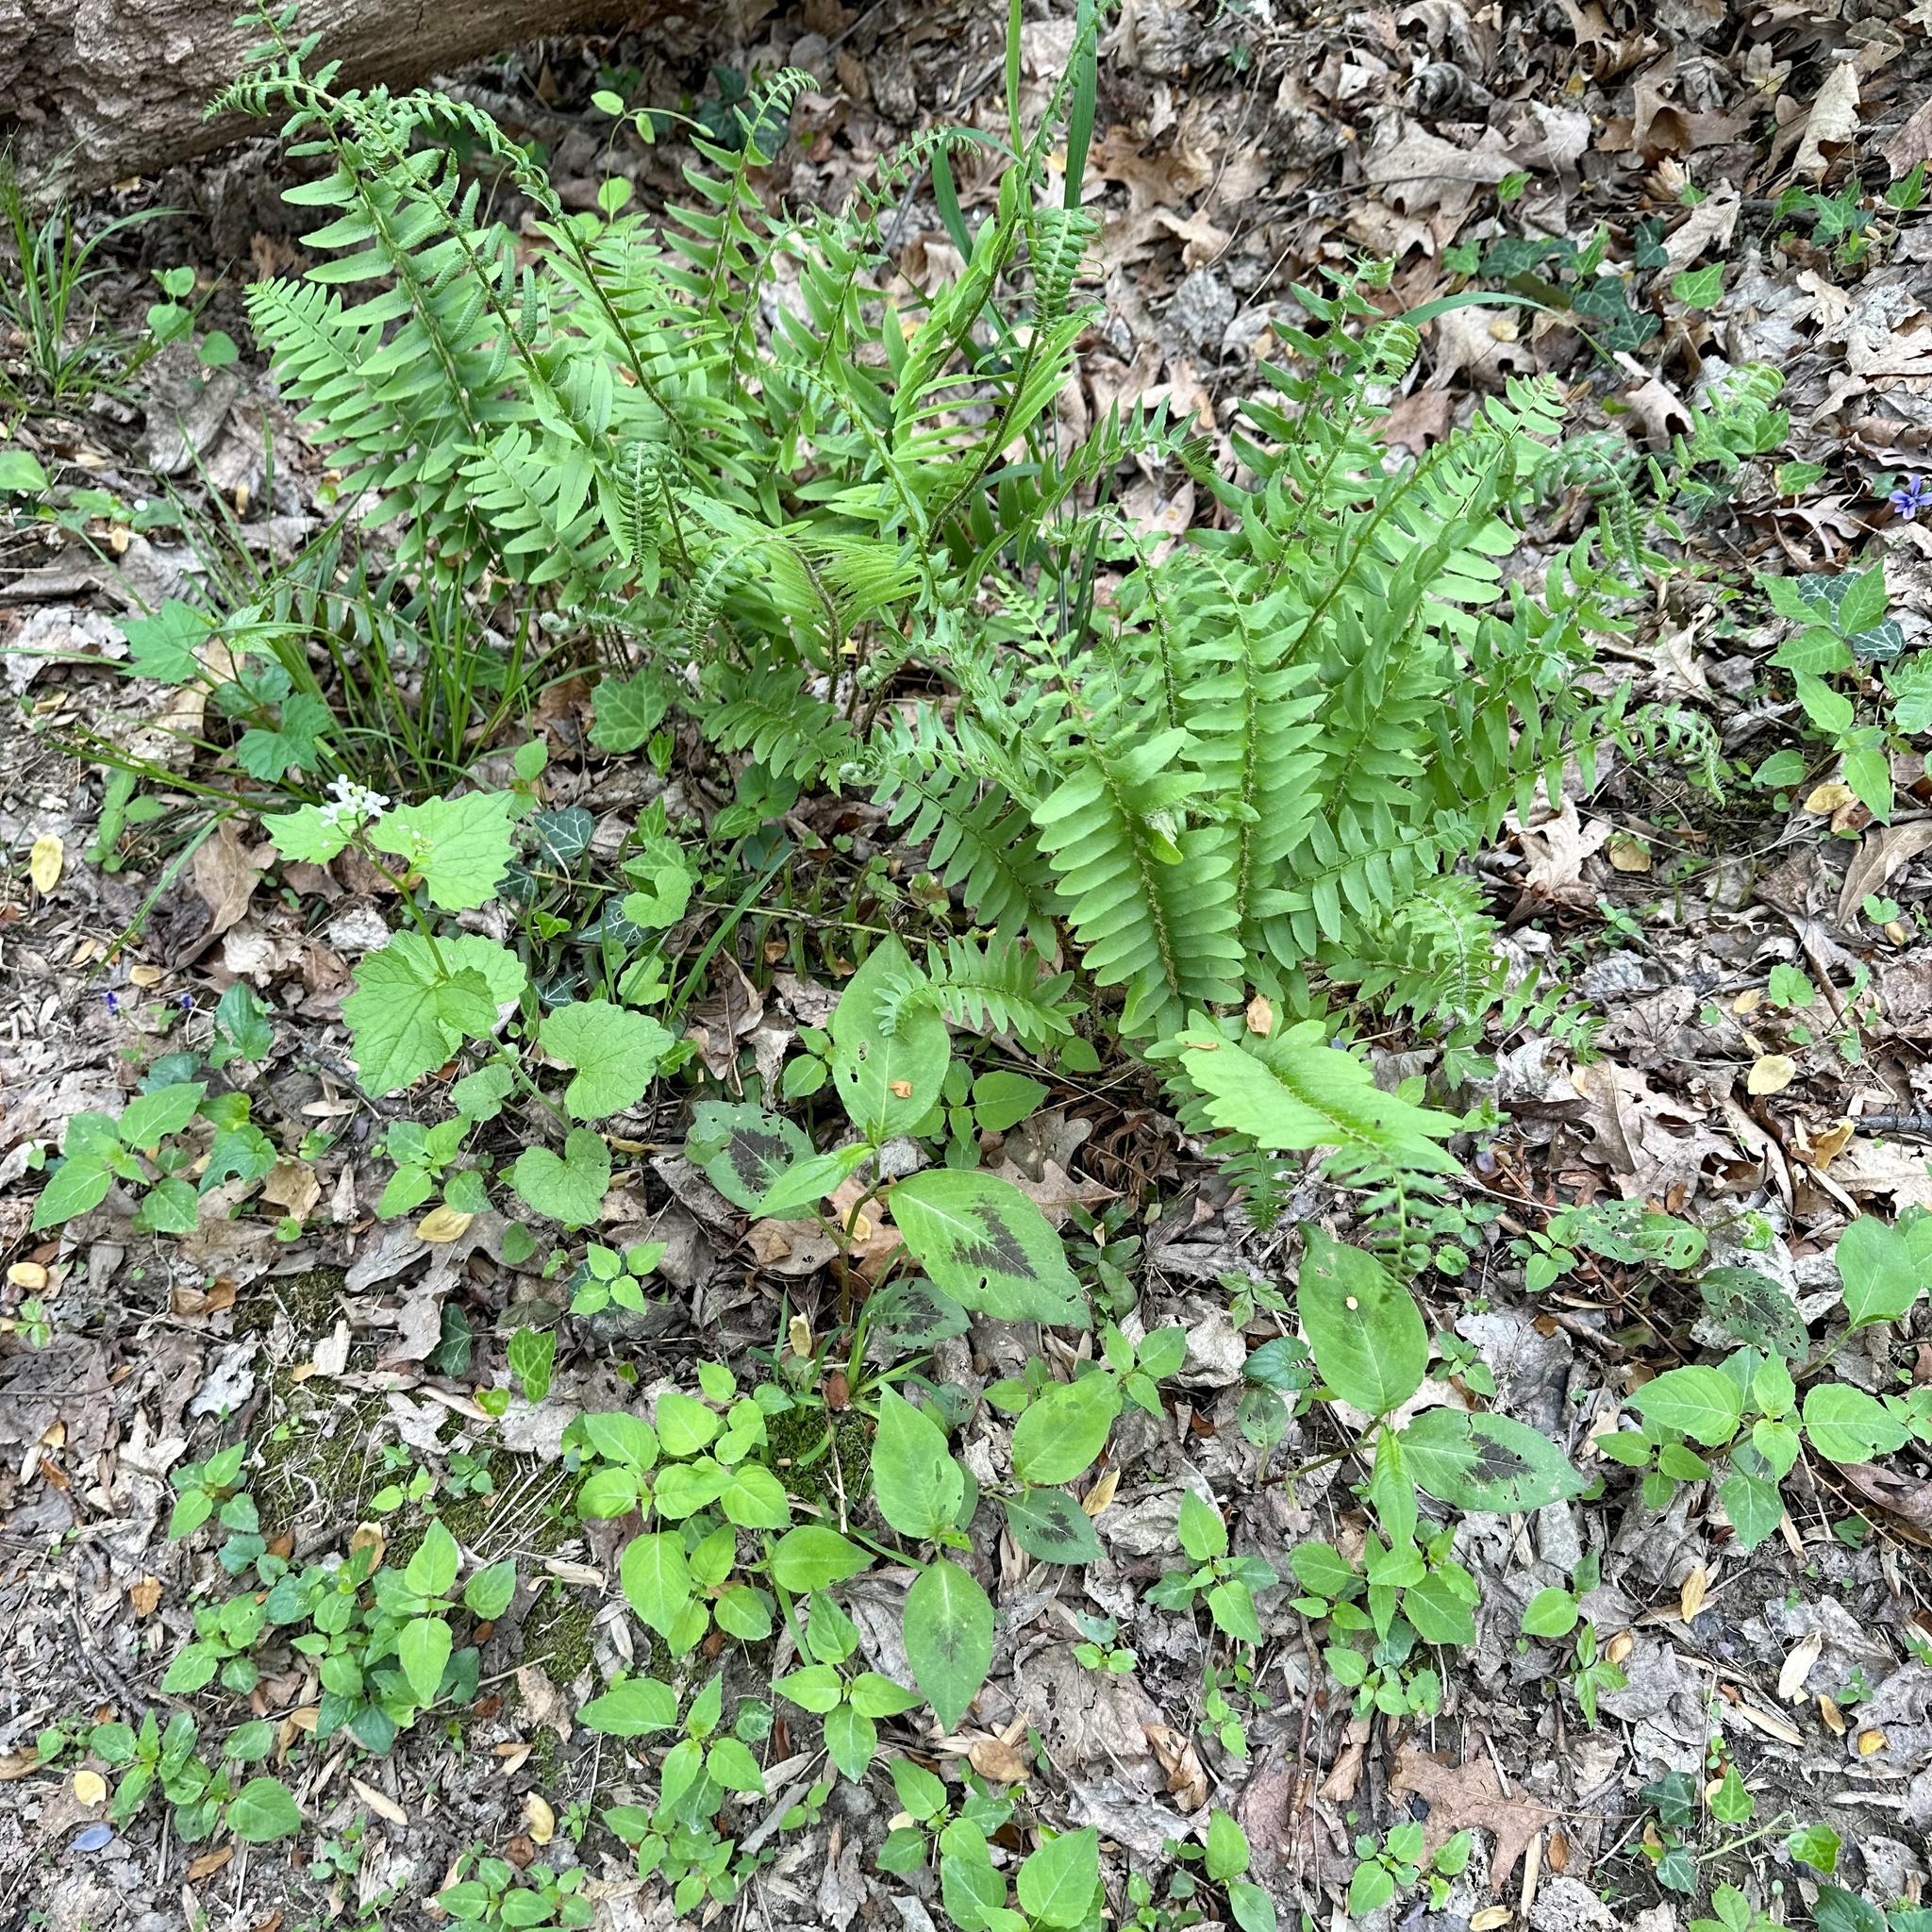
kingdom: Plantae
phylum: Tracheophyta
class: Magnoliopsida
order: Caryophyllales
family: Polygonaceae
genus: Persicaria
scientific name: Persicaria virginiana
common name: Jumpseed
